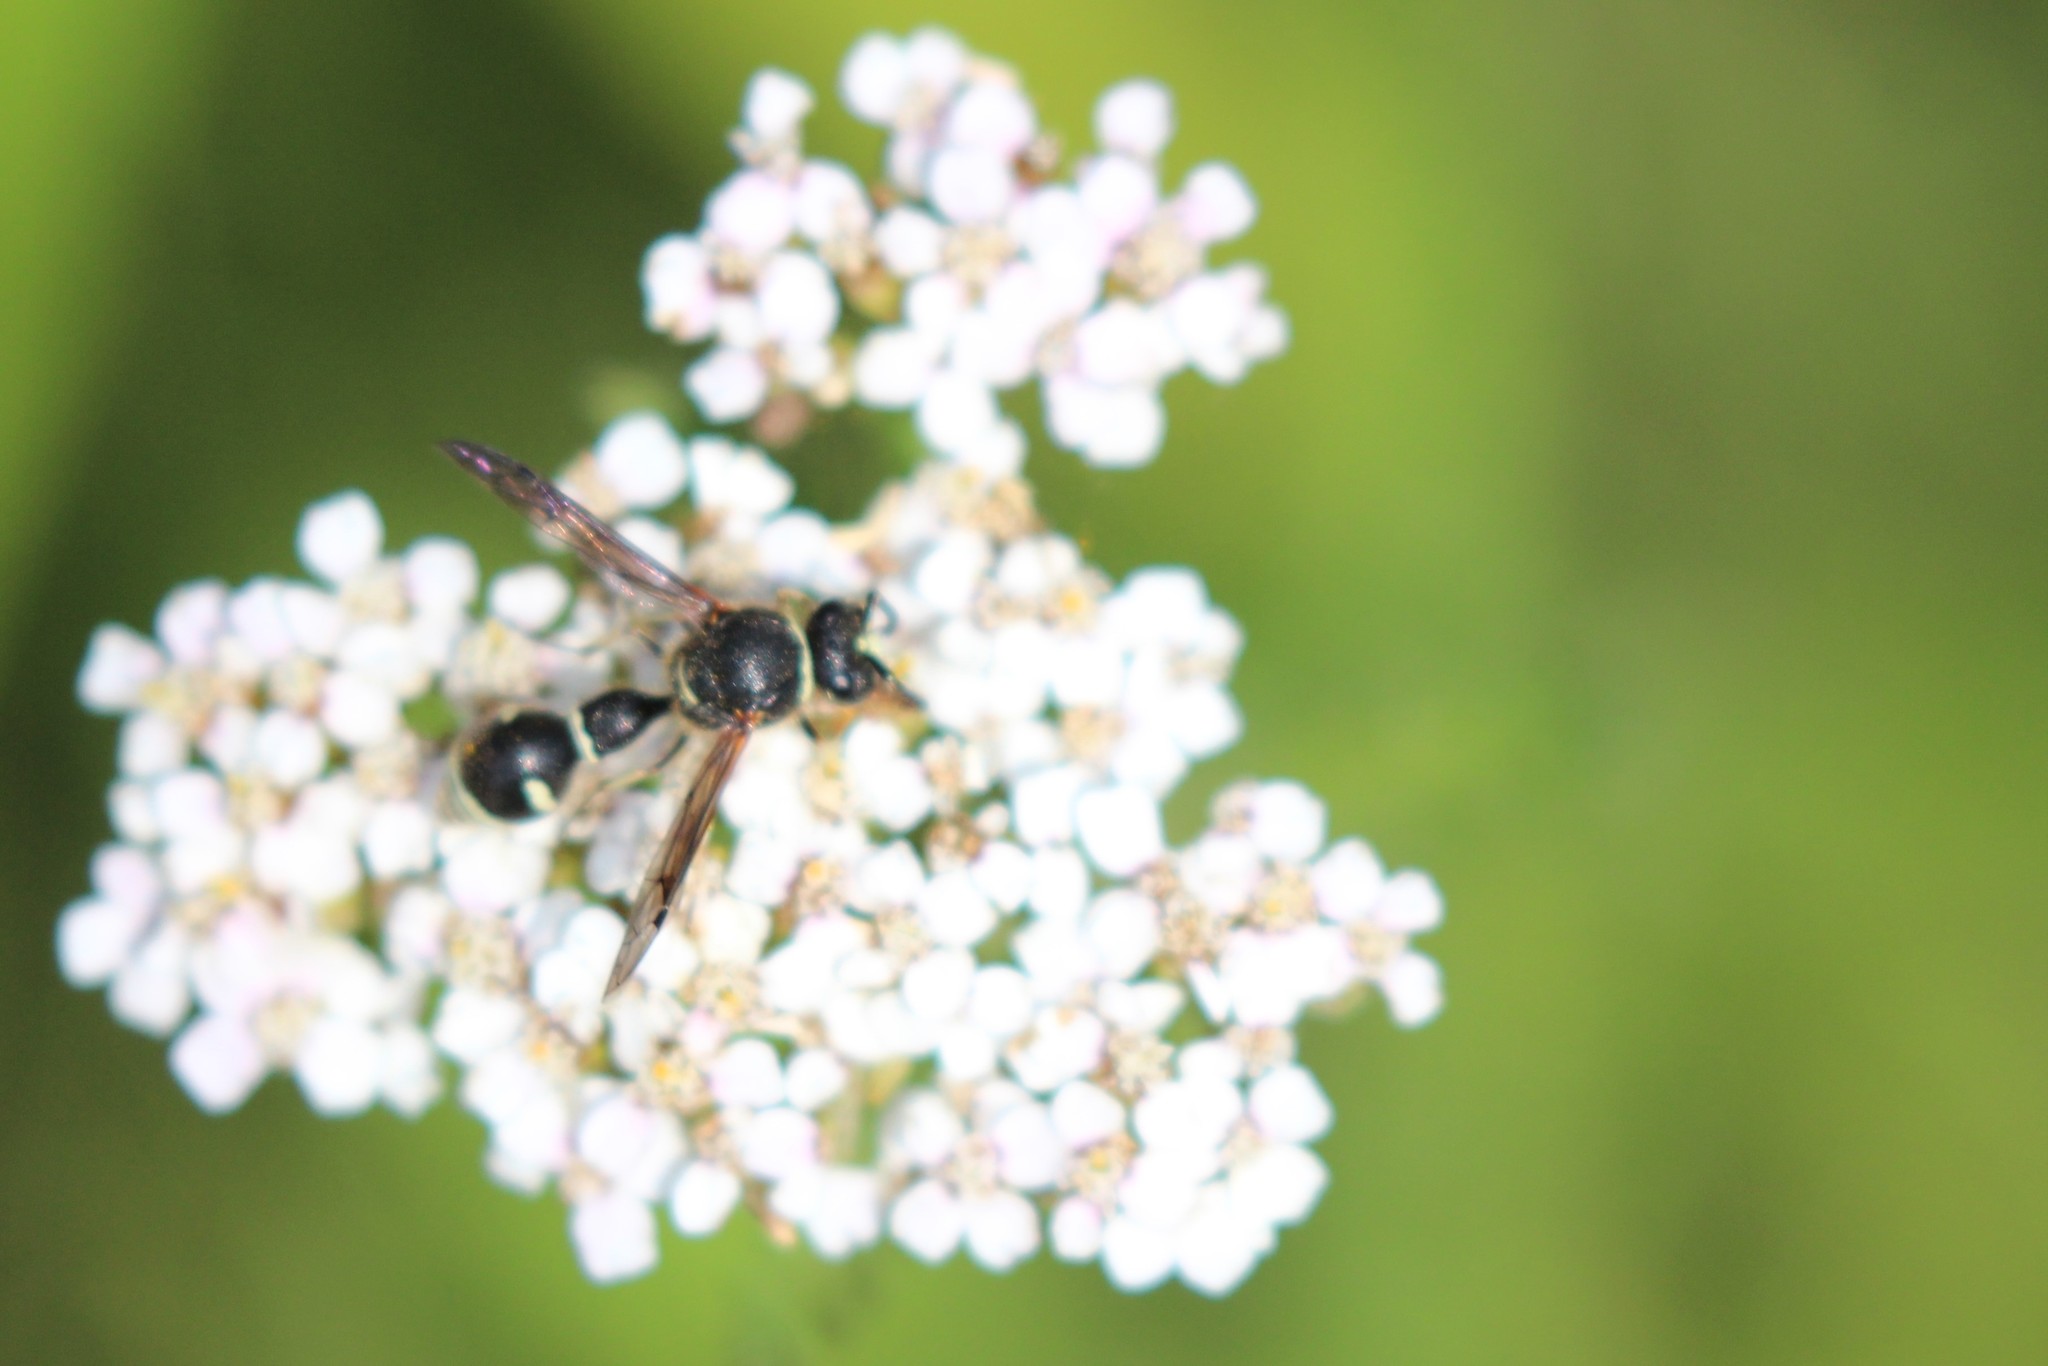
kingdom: Animalia
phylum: Arthropoda
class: Insecta
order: Hymenoptera
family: Vespidae
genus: Eumenes
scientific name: Eumenes crucifera
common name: Cross potter wasp
